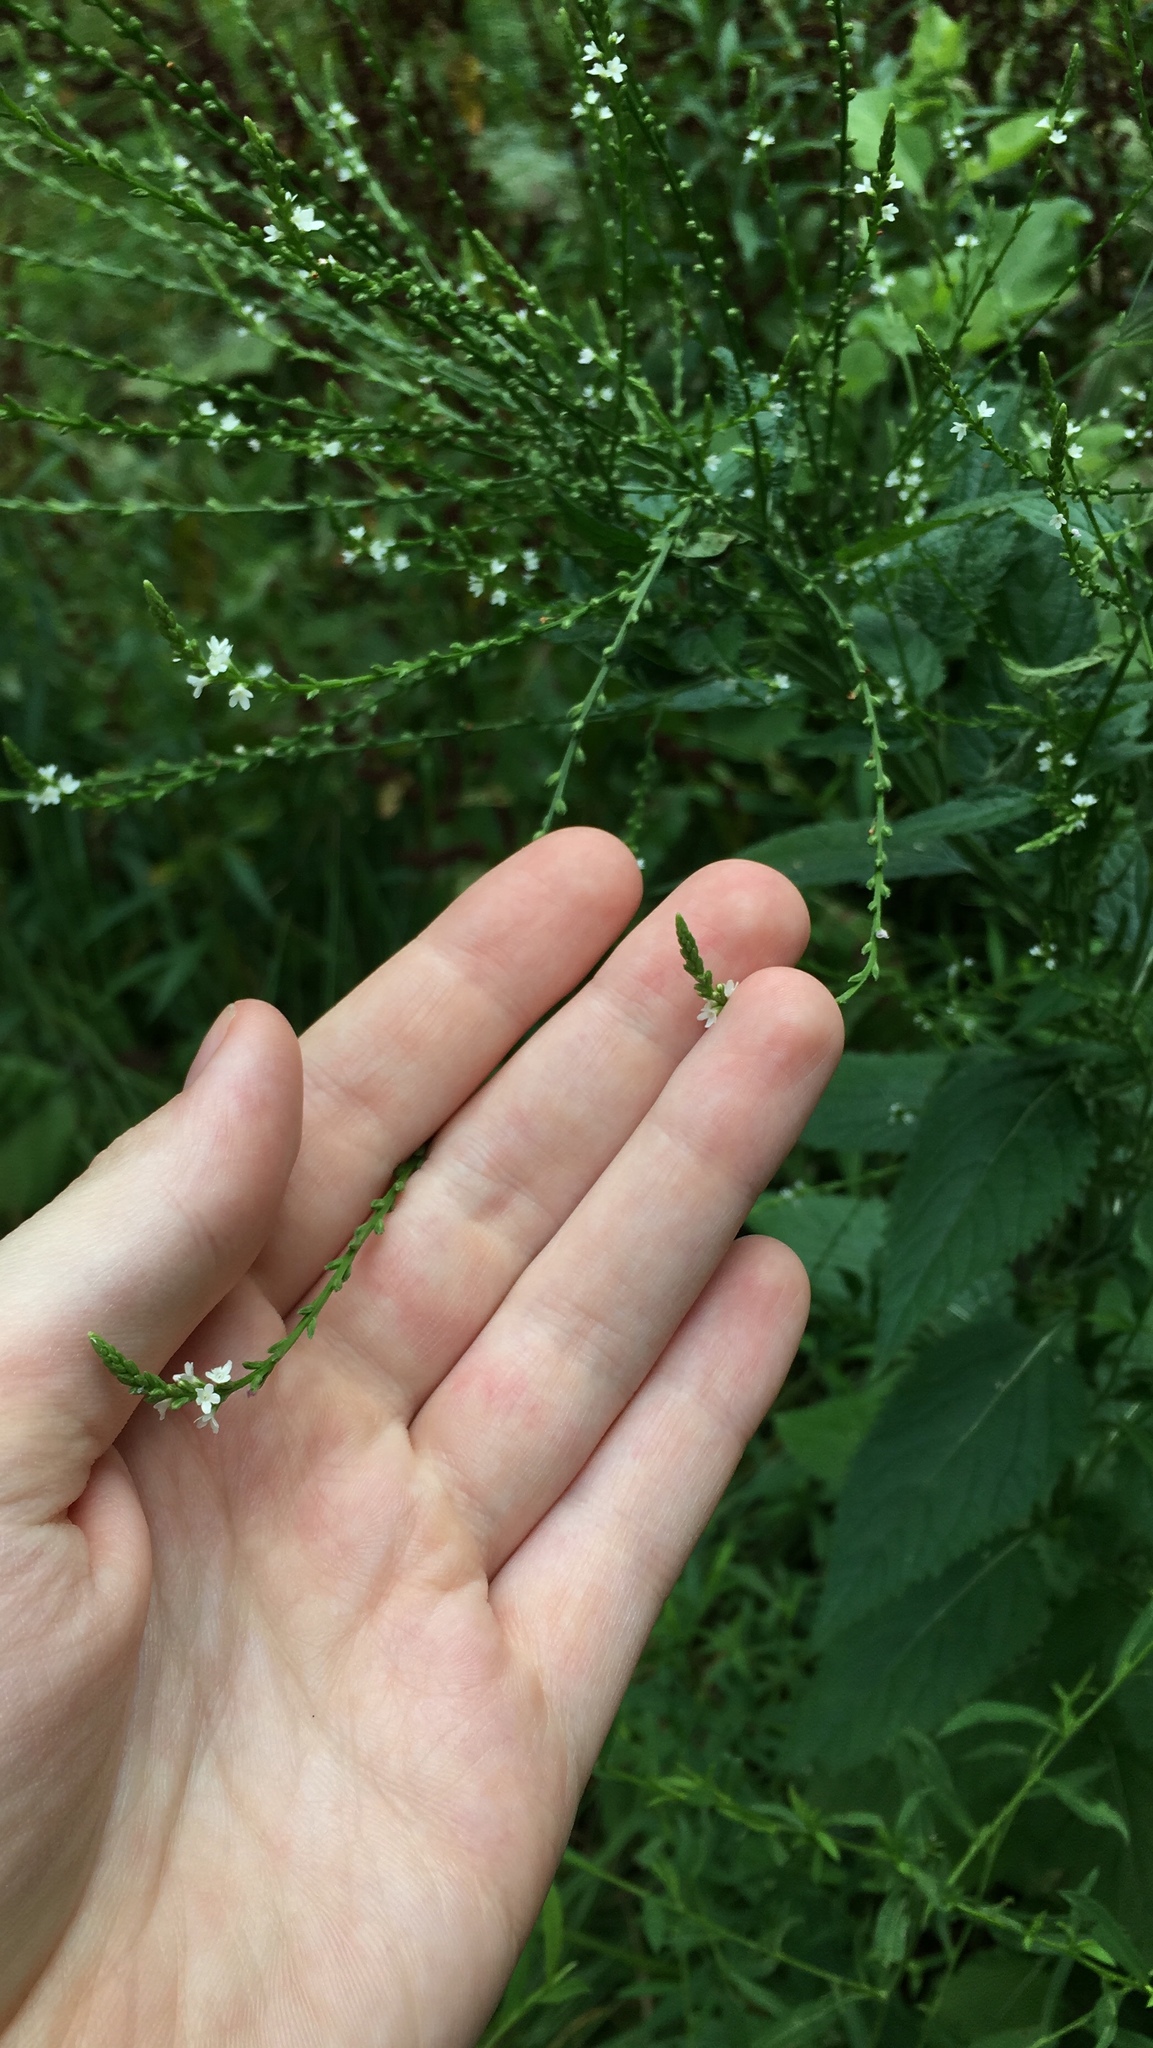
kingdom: Plantae
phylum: Tracheophyta
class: Magnoliopsida
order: Lamiales
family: Verbenaceae
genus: Verbena
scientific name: Verbena urticifolia
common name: Nettle-leaved vervain
